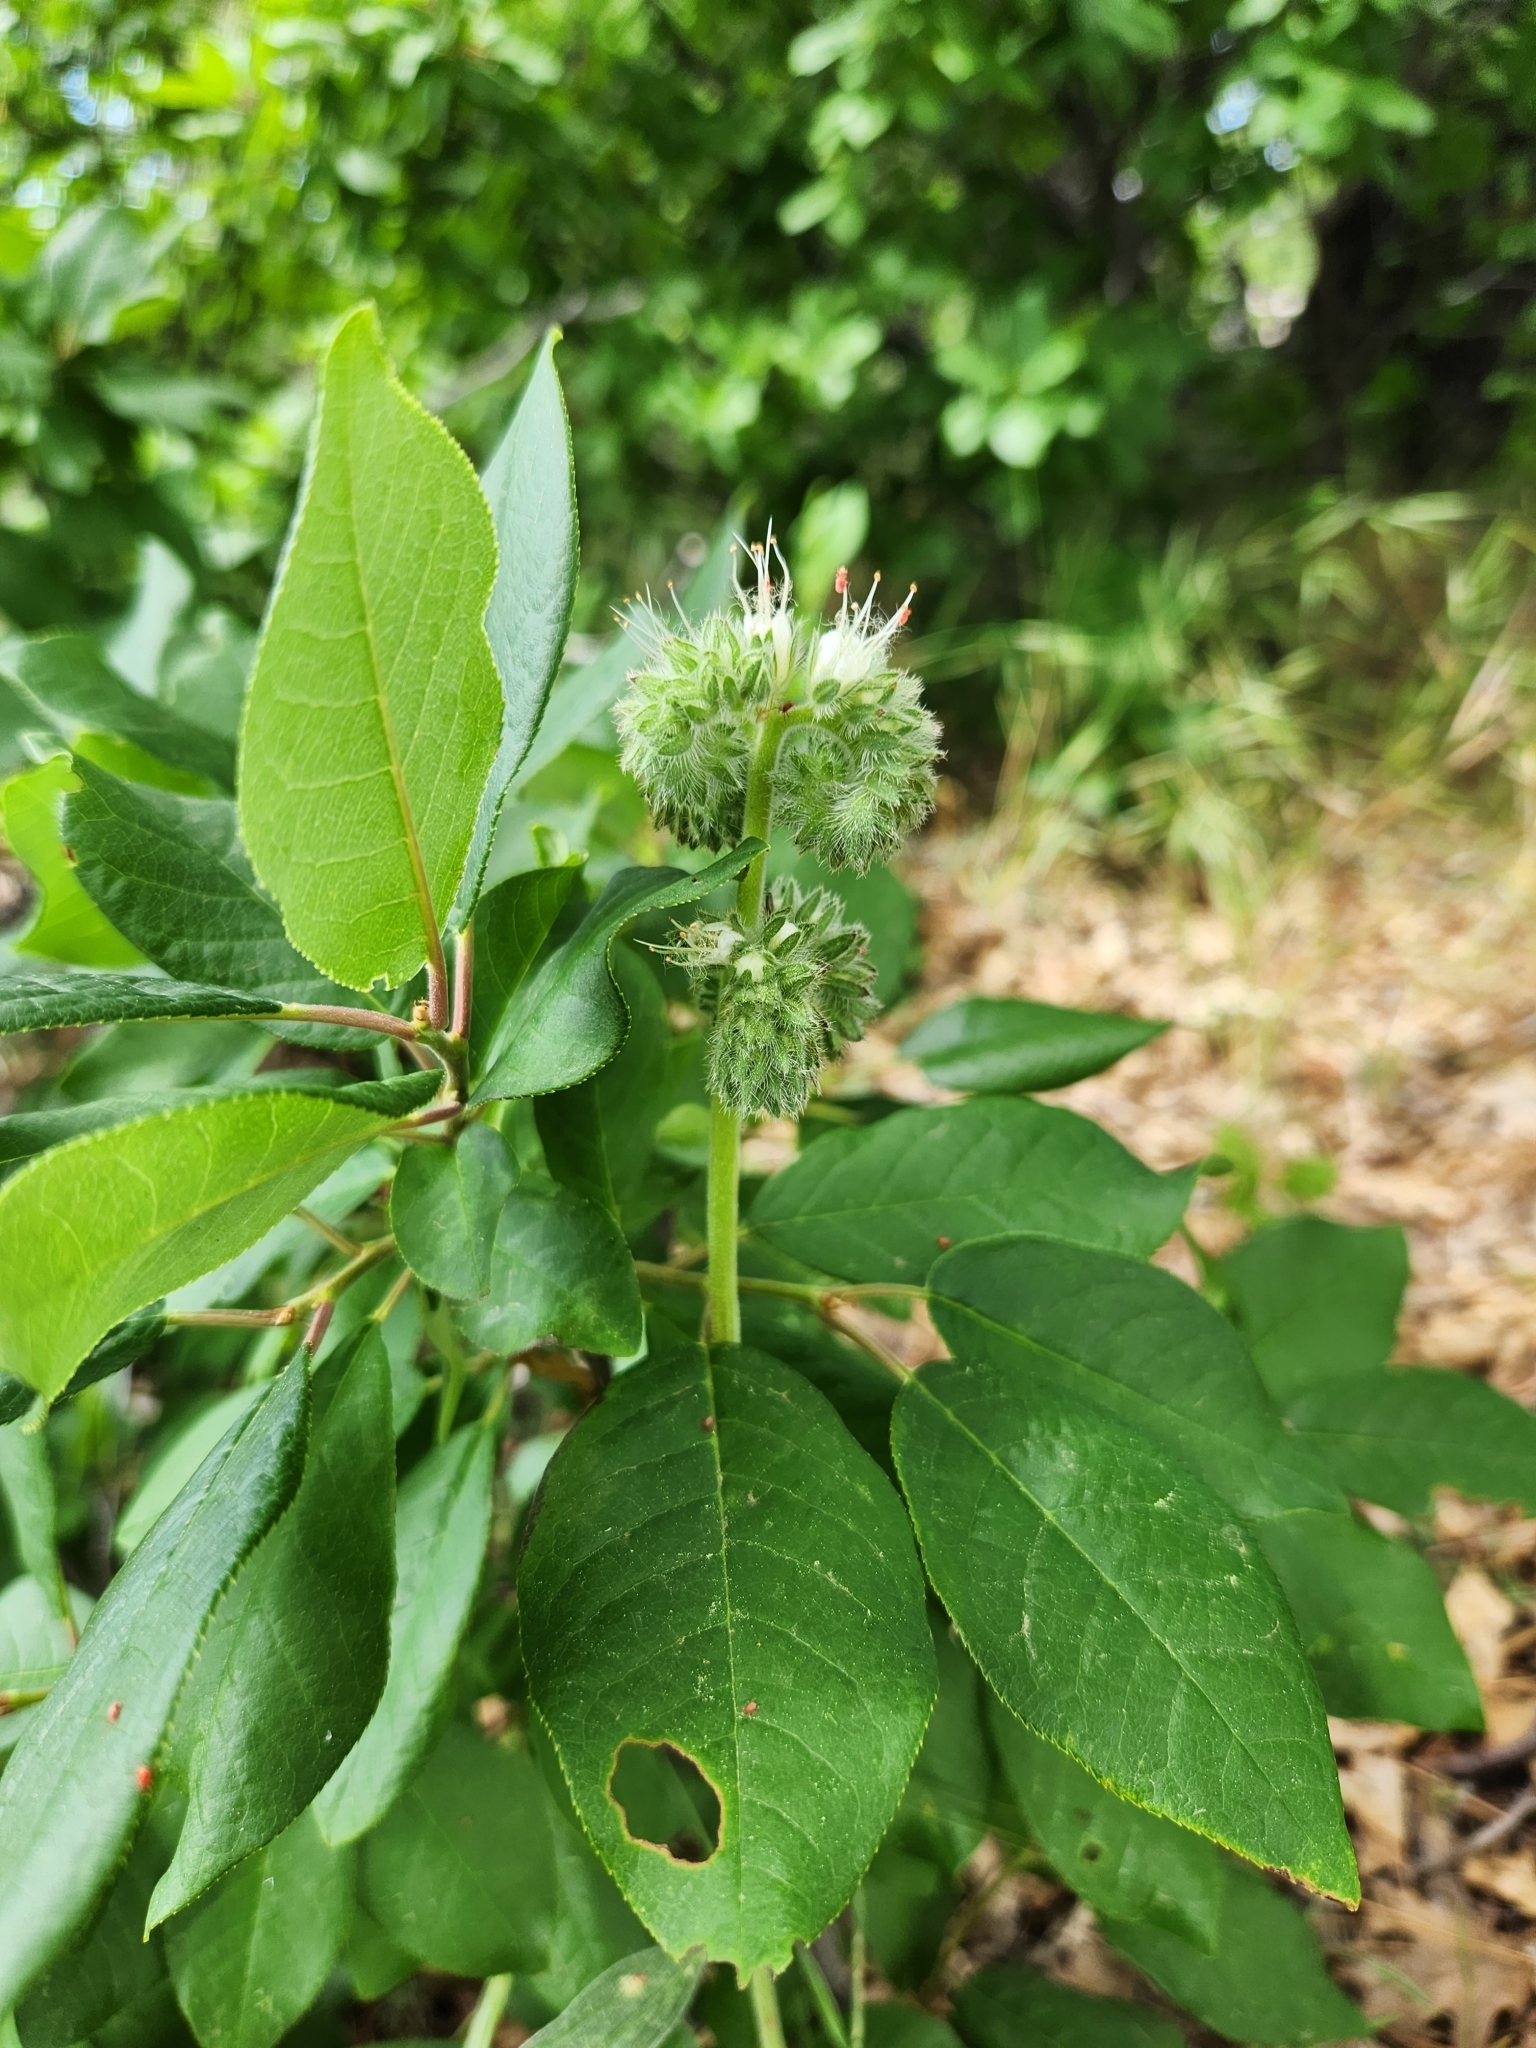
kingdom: Plantae
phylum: Tracheophyta
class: Magnoliopsida
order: Boraginales
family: Hydrophyllaceae
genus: Phacelia
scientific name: Phacelia imbricata
